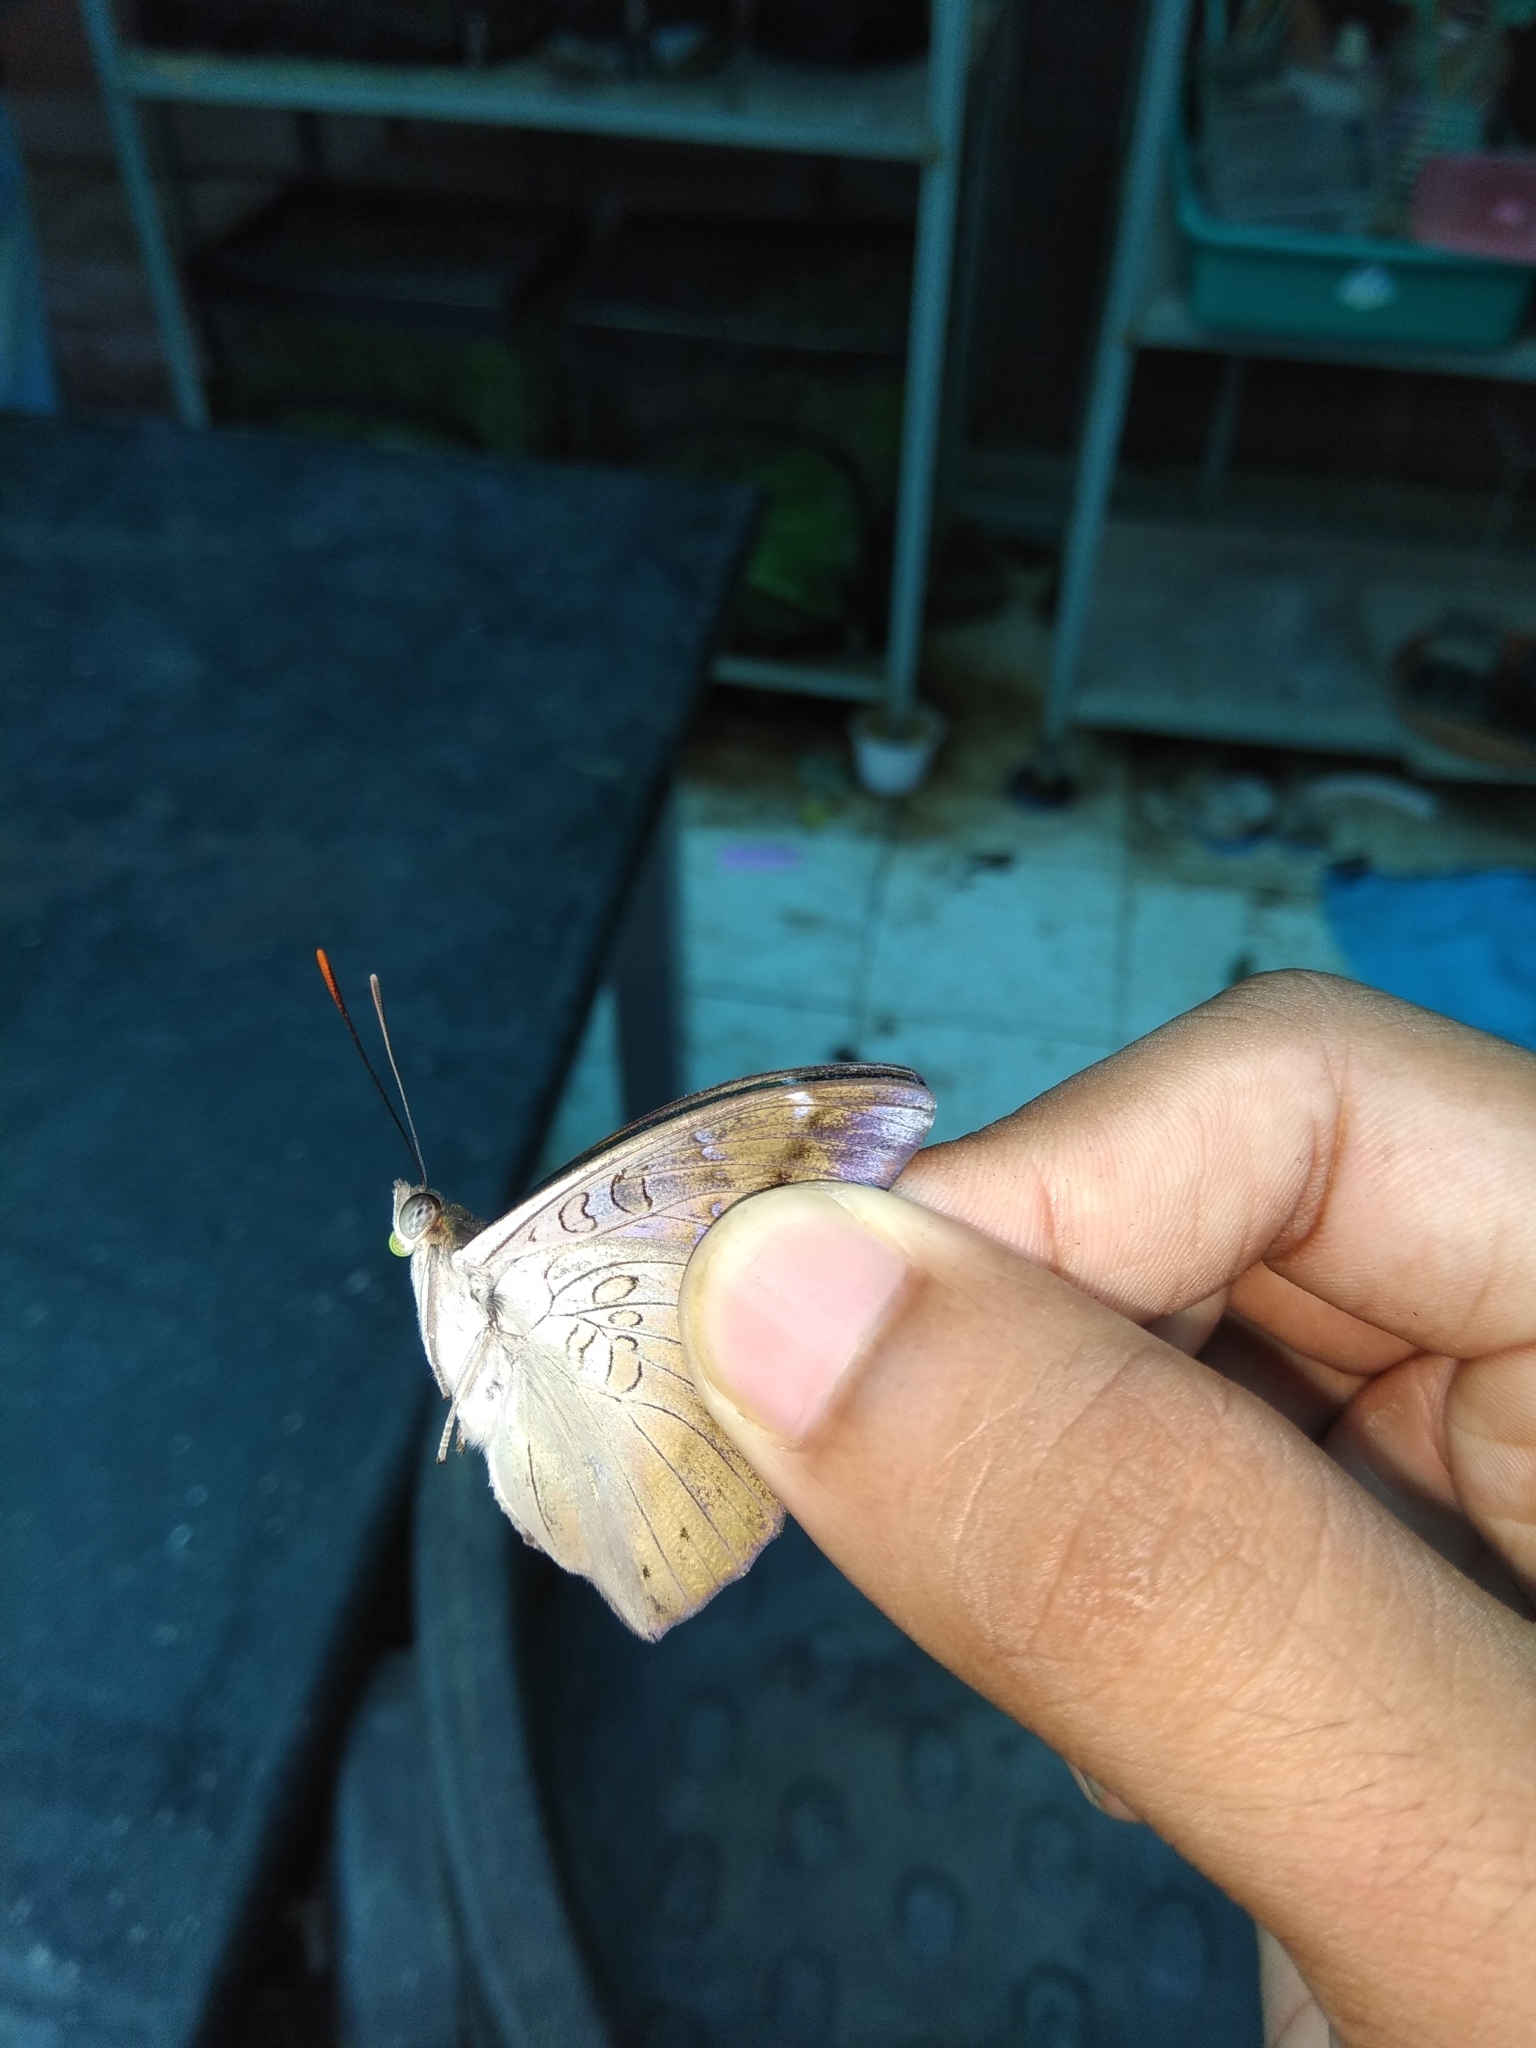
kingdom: Animalia
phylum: Arthropoda
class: Insecta
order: Lepidoptera
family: Nymphalidae
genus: Euthalia
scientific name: Euthalia aconthea
